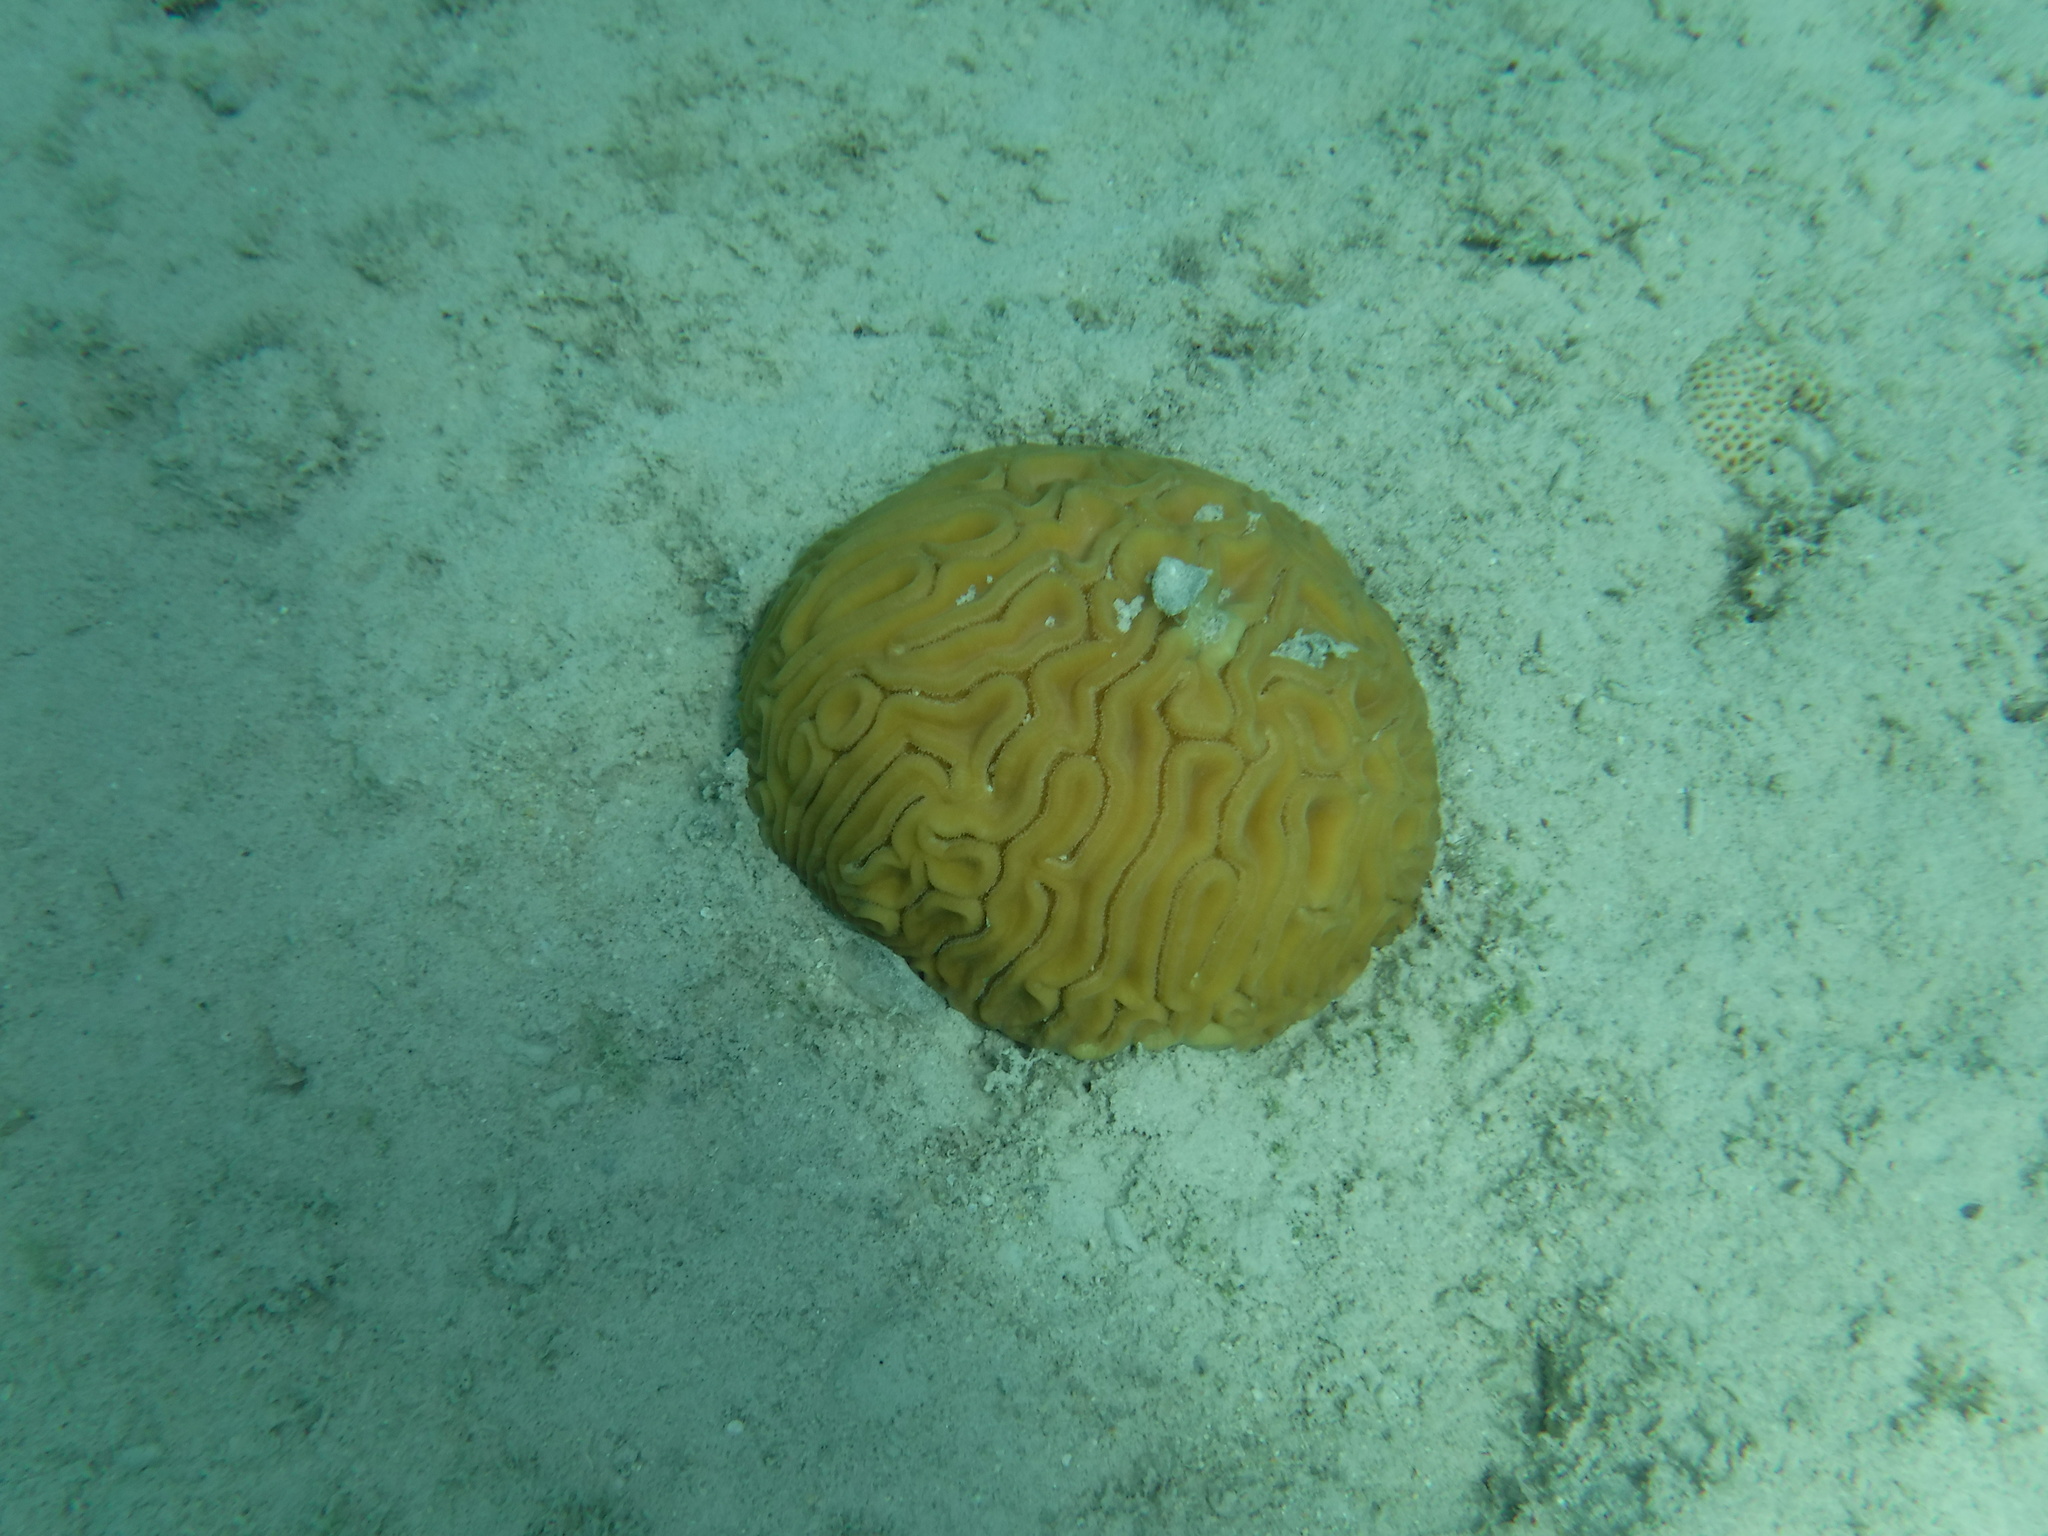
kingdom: Animalia
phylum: Cnidaria
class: Anthozoa
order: Scleractinia
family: Faviidae
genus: Diploria
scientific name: Diploria labyrinthiformis
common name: Grooved brain coral
